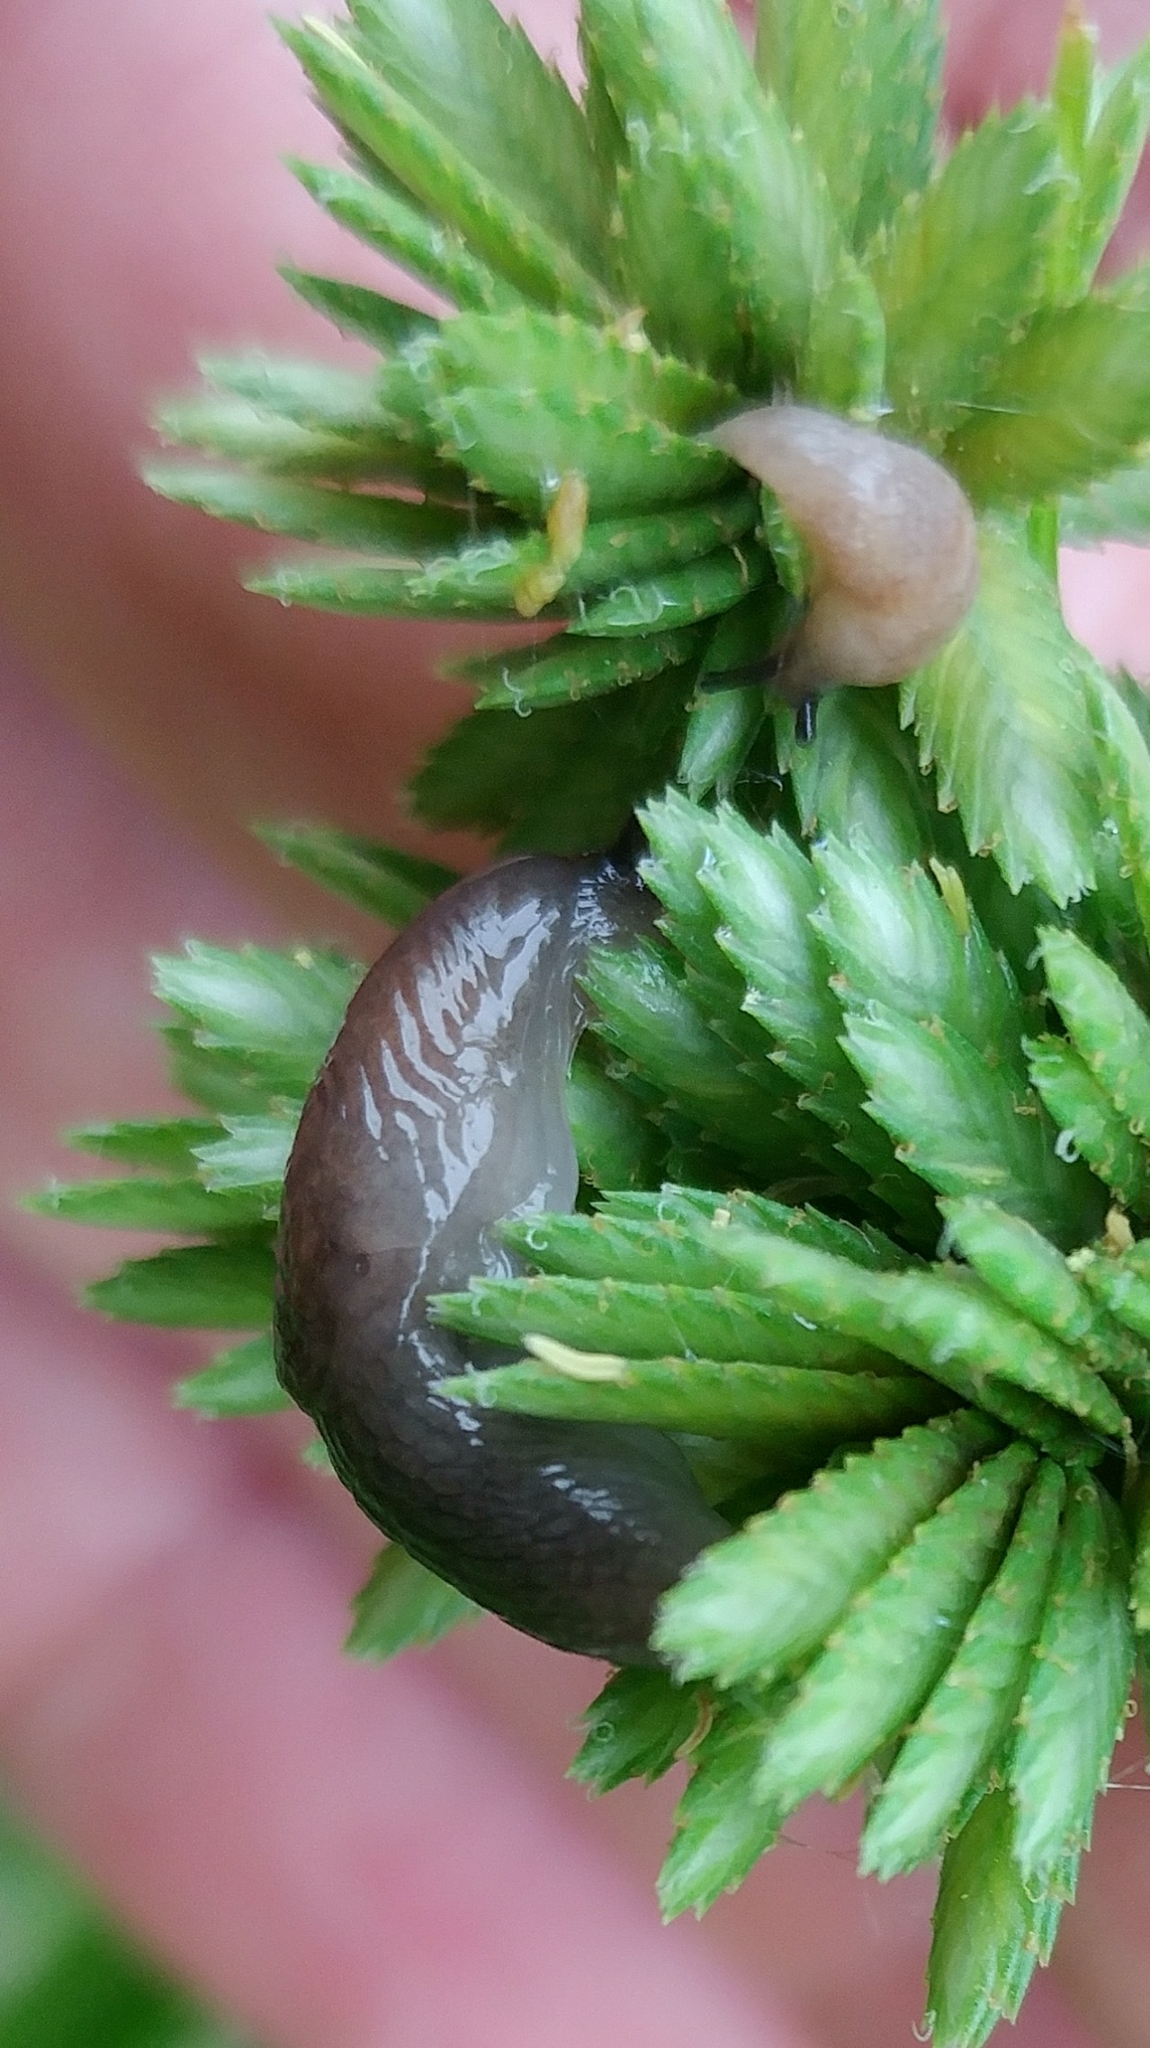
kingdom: Animalia
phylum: Mollusca
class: Gastropoda
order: Stylommatophora
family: Agriolimacidae
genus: Deroceras
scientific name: Deroceras laeve
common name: Marsh slug
